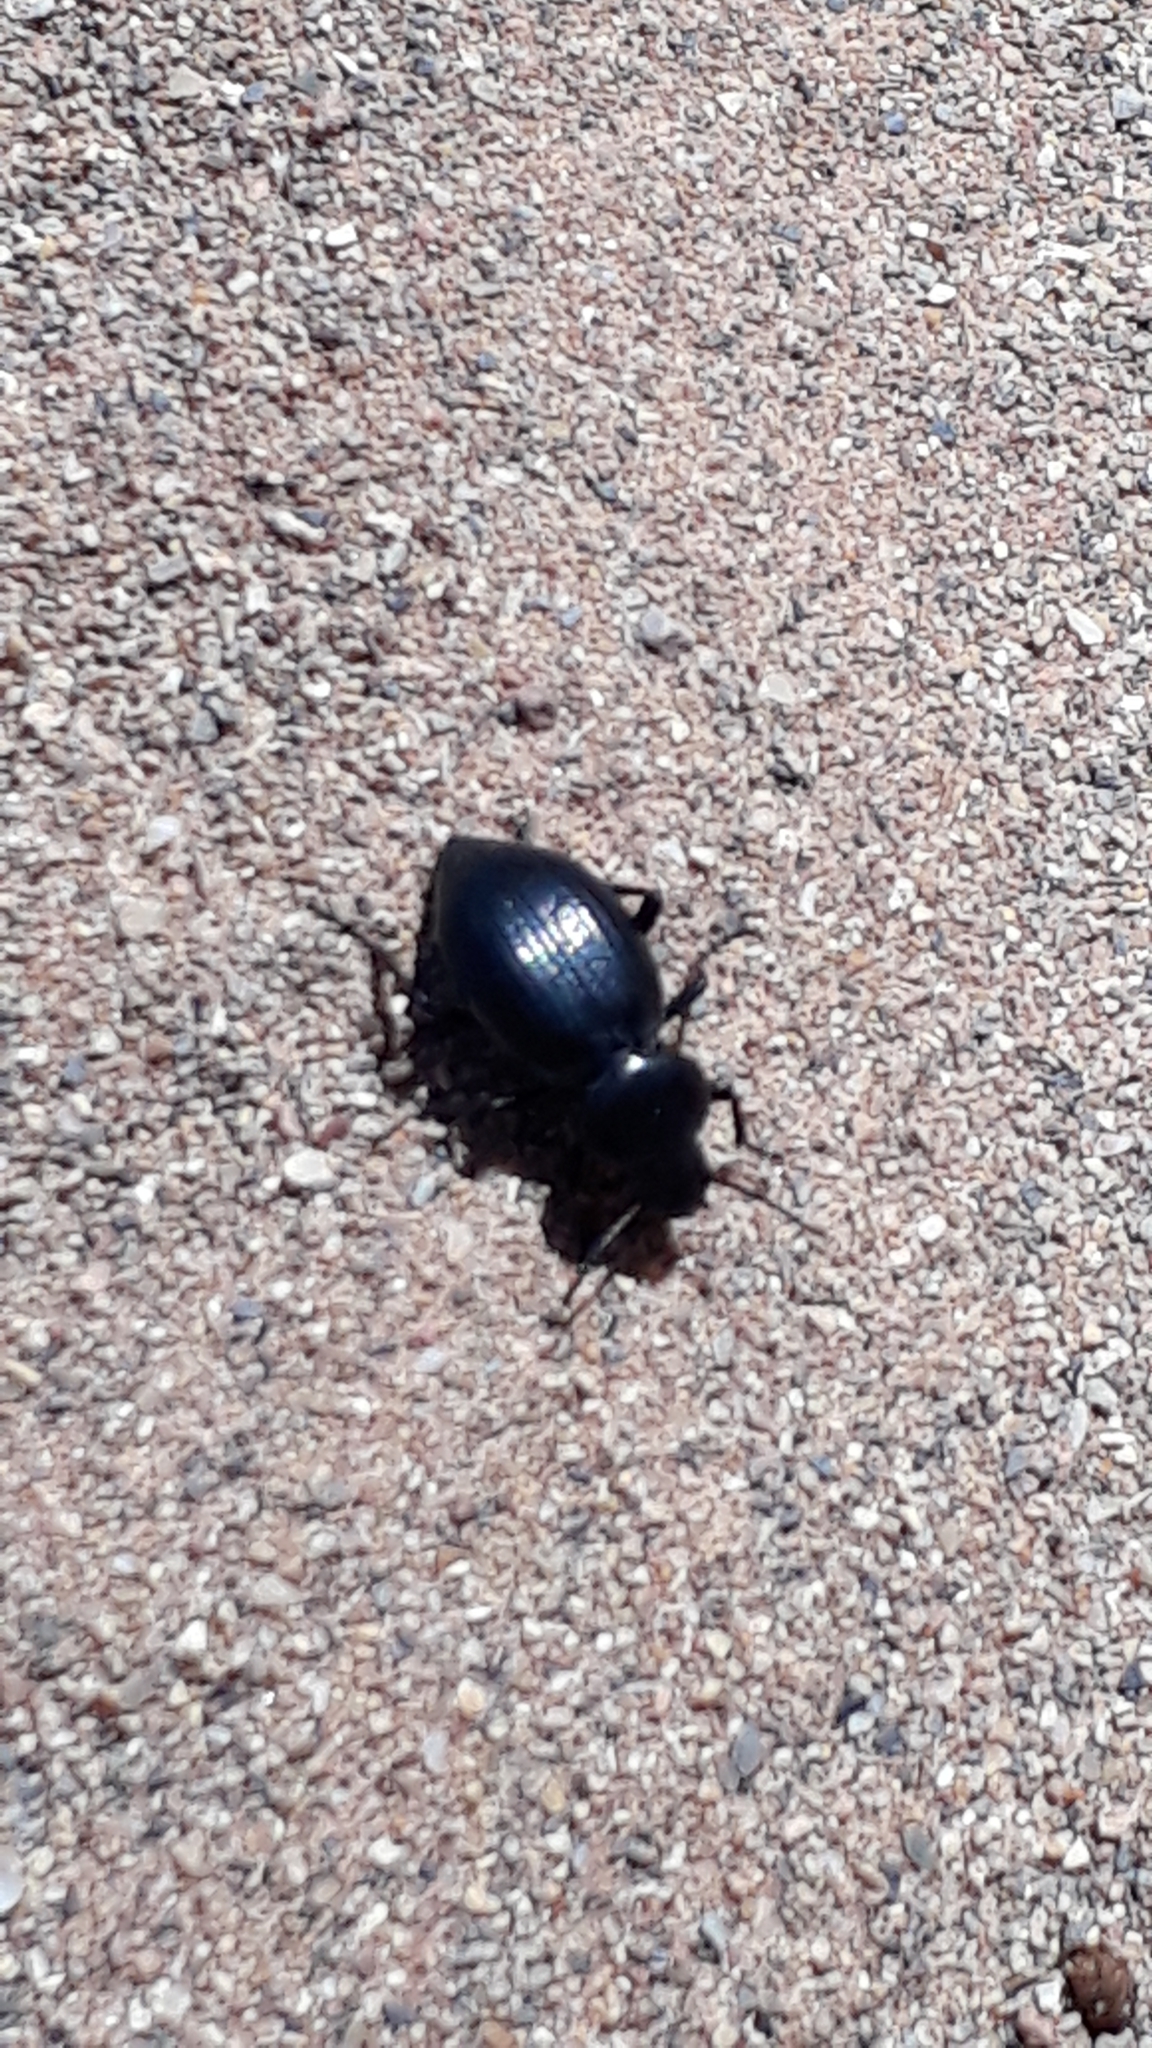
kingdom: Animalia
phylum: Arthropoda
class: Insecta
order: Coleoptera
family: Tenebrionidae
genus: Tentyria
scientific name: Tentyria schaumii
